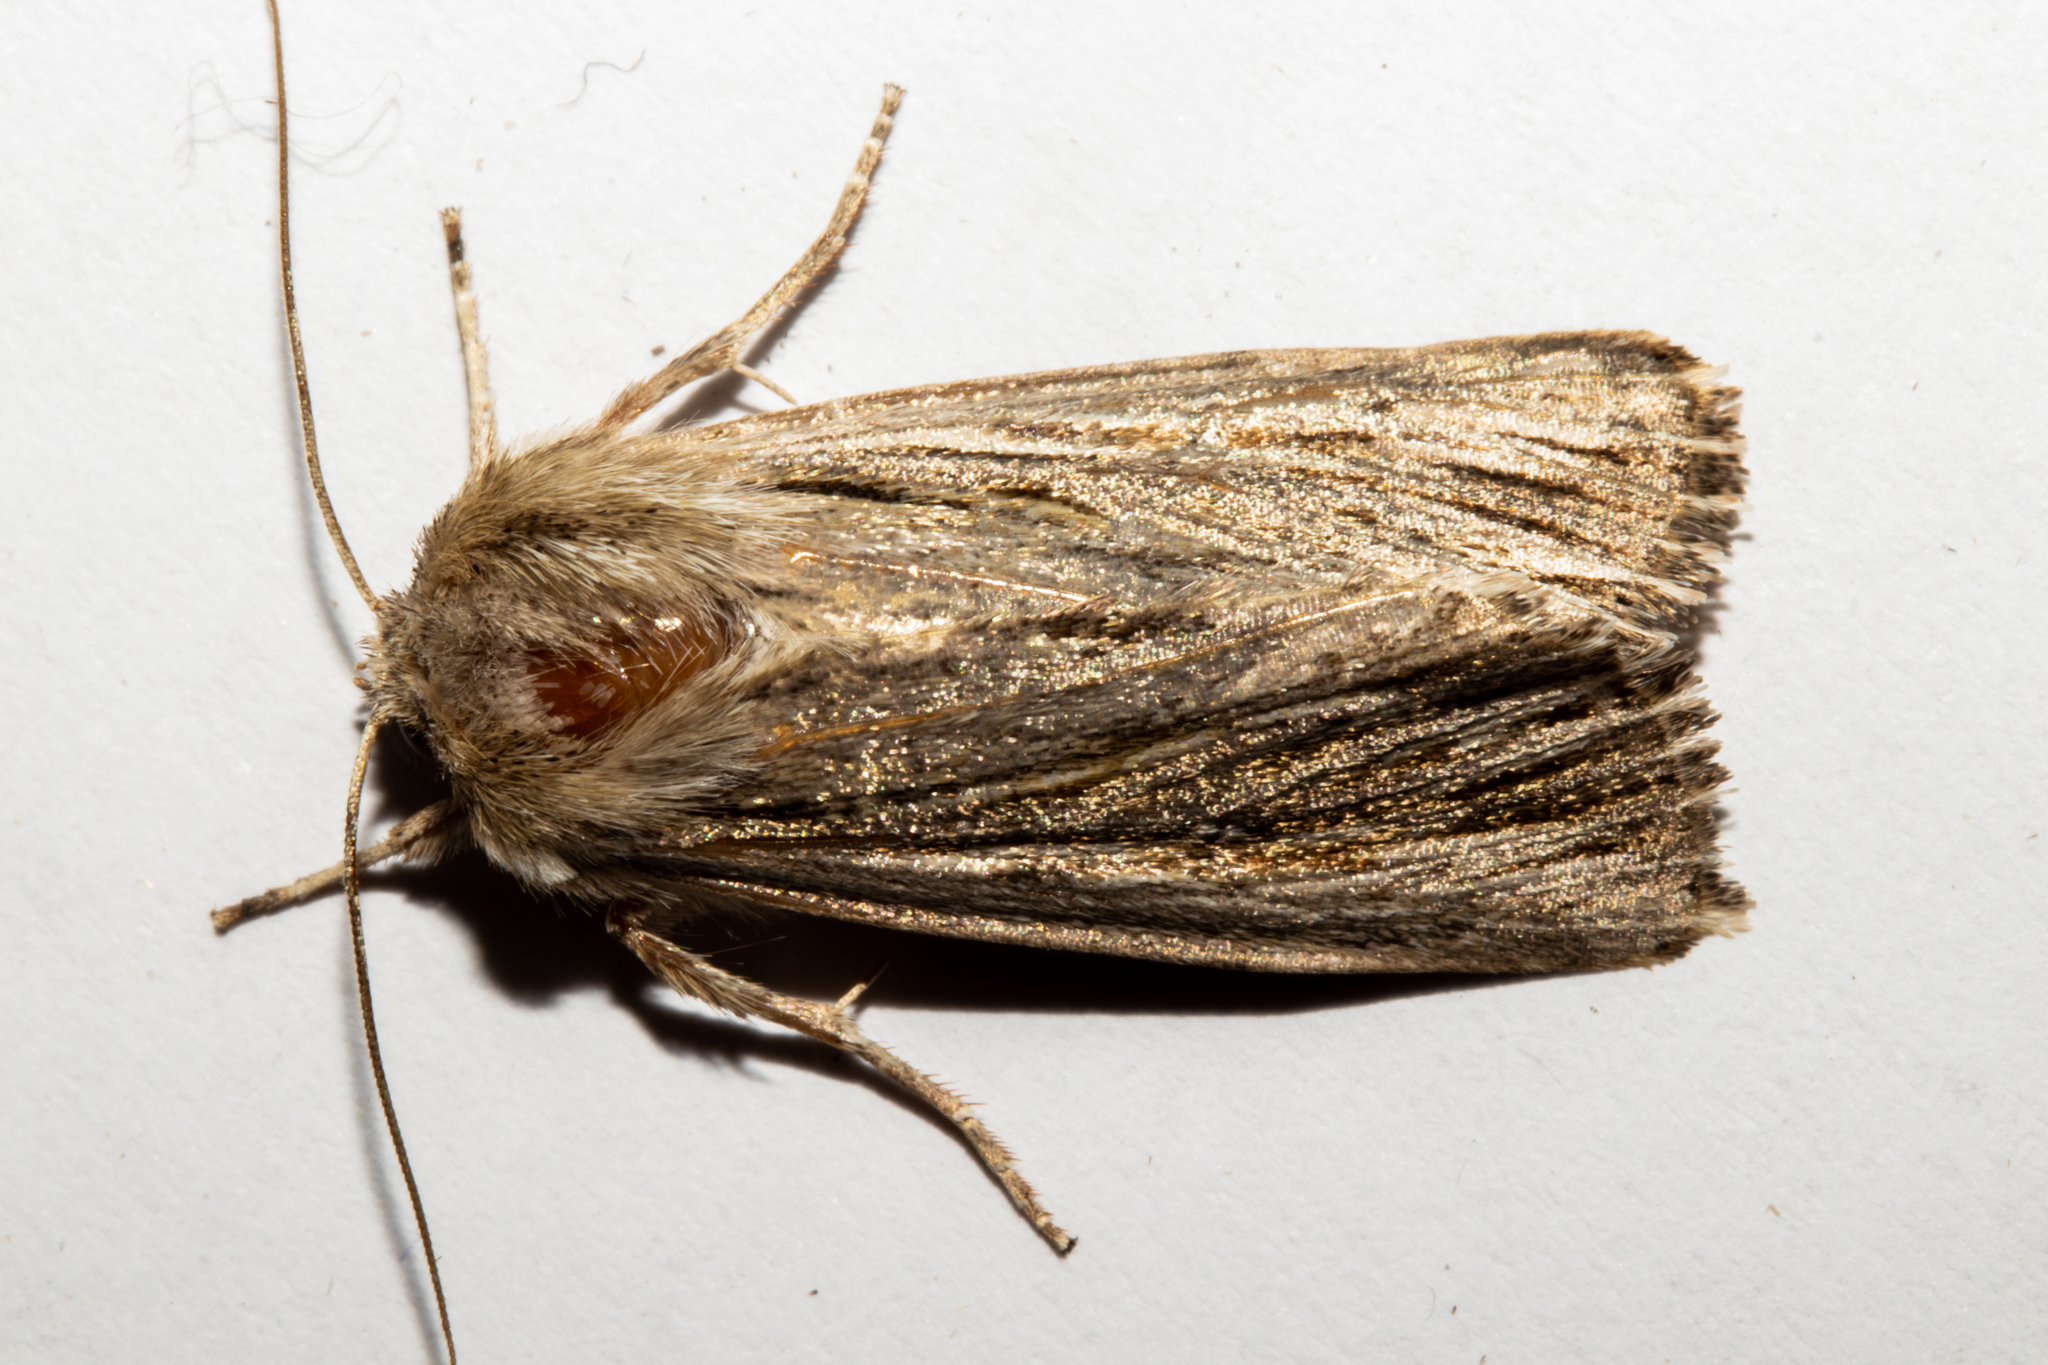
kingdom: Animalia
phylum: Arthropoda
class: Insecta
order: Lepidoptera
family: Noctuidae
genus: Persectania
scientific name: Persectania aversa
